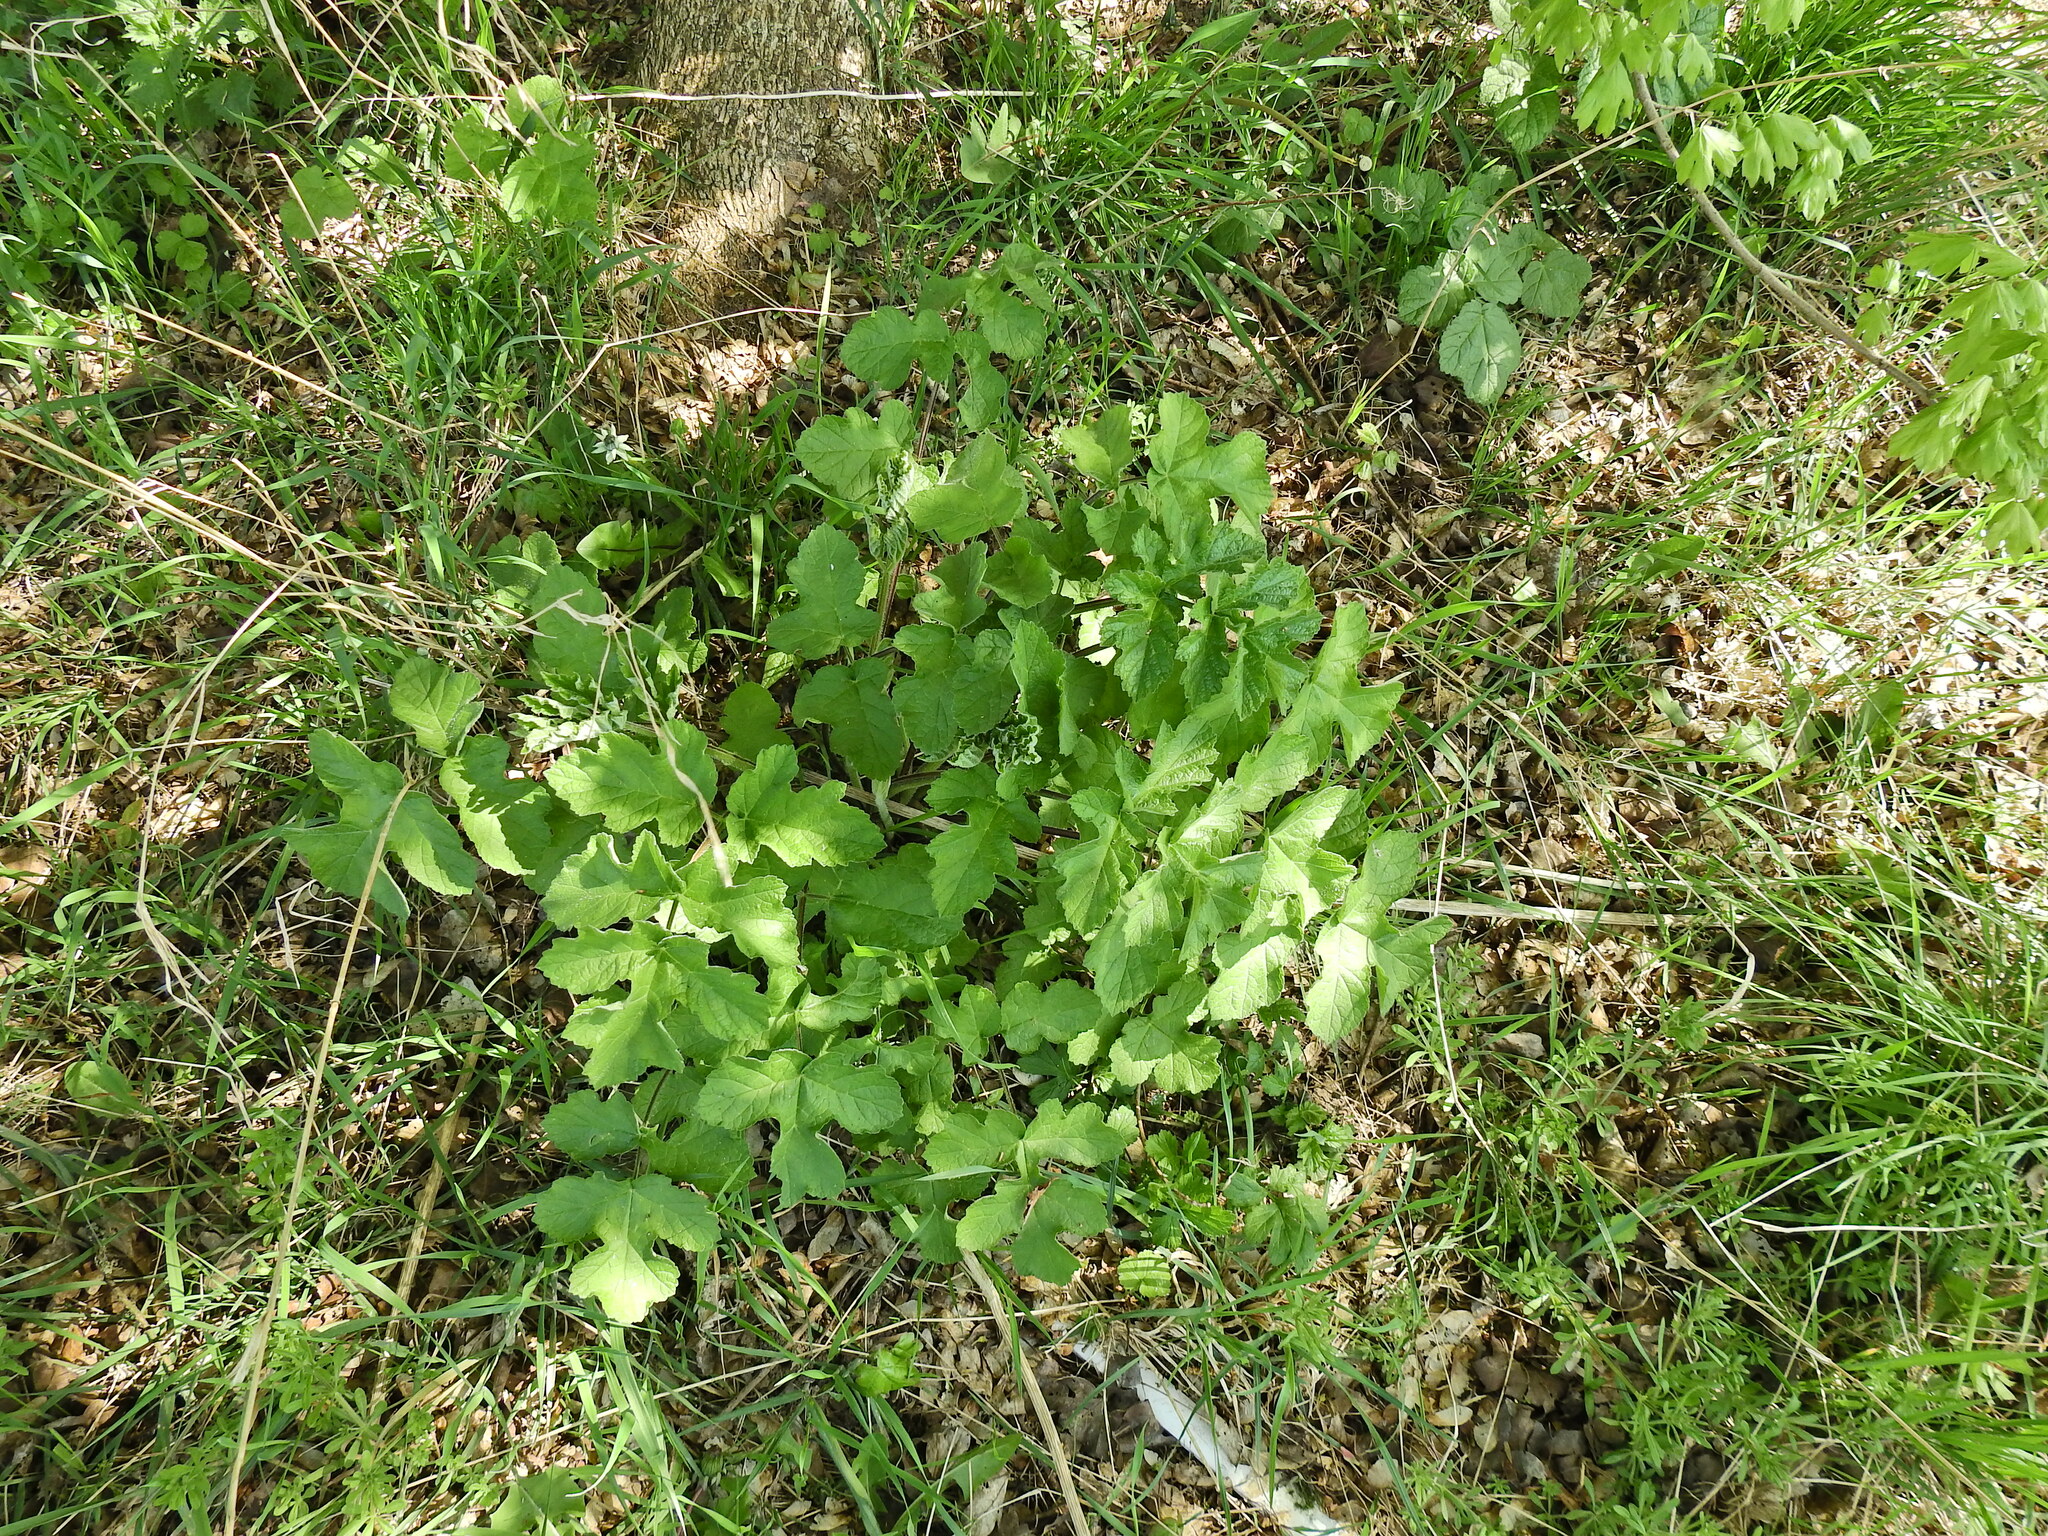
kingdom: Plantae
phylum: Tracheophyta
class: Magnoliopsida
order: Apiales
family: Apiaceae
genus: Heracleum
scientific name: Heracleum sphondylium
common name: Hogweed
